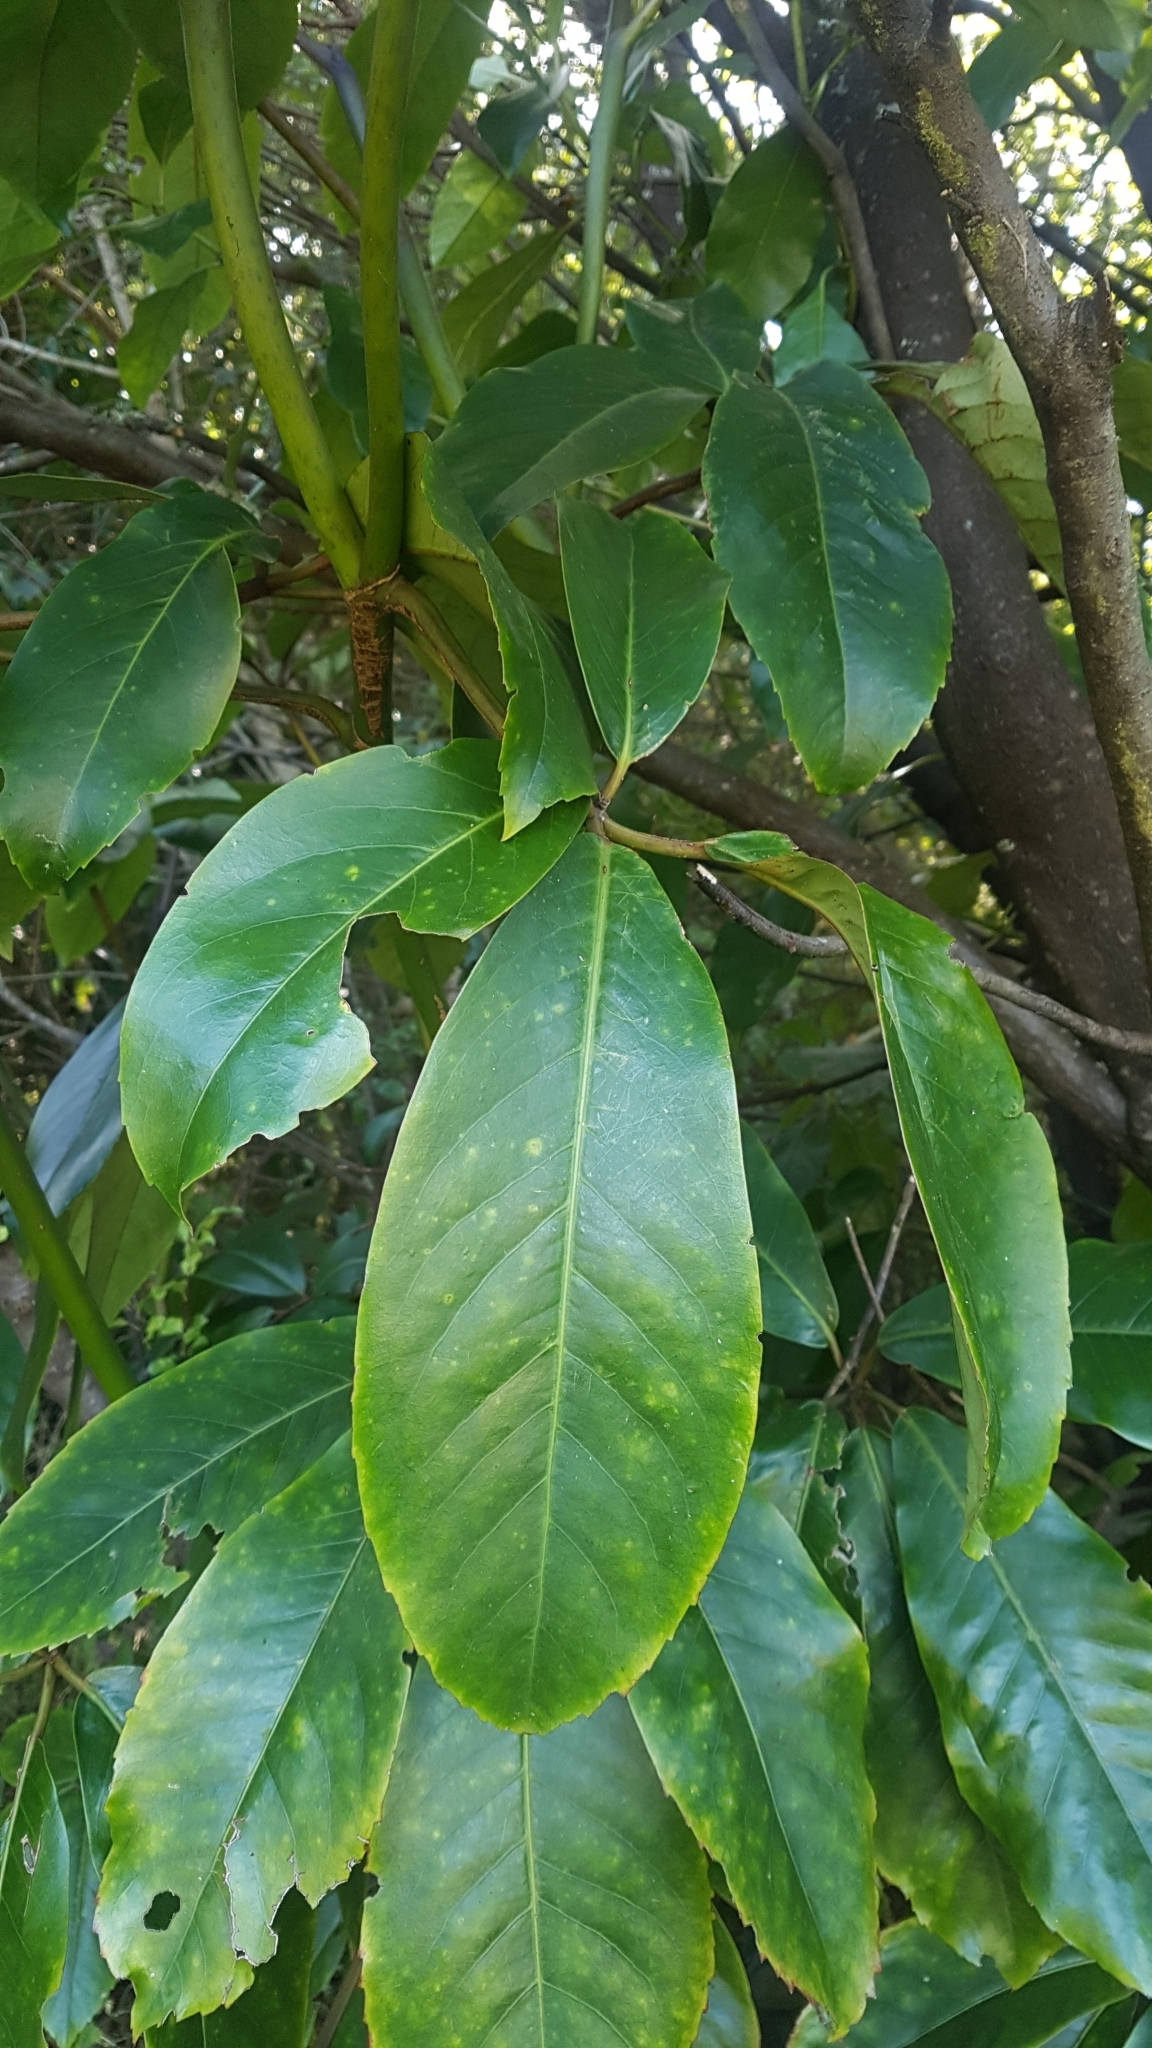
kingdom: Plantae
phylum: Tracheophyta
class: Magnoliopsida
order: Apiales
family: Araliaceae
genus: Neopanax
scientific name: Neopanax laetus
